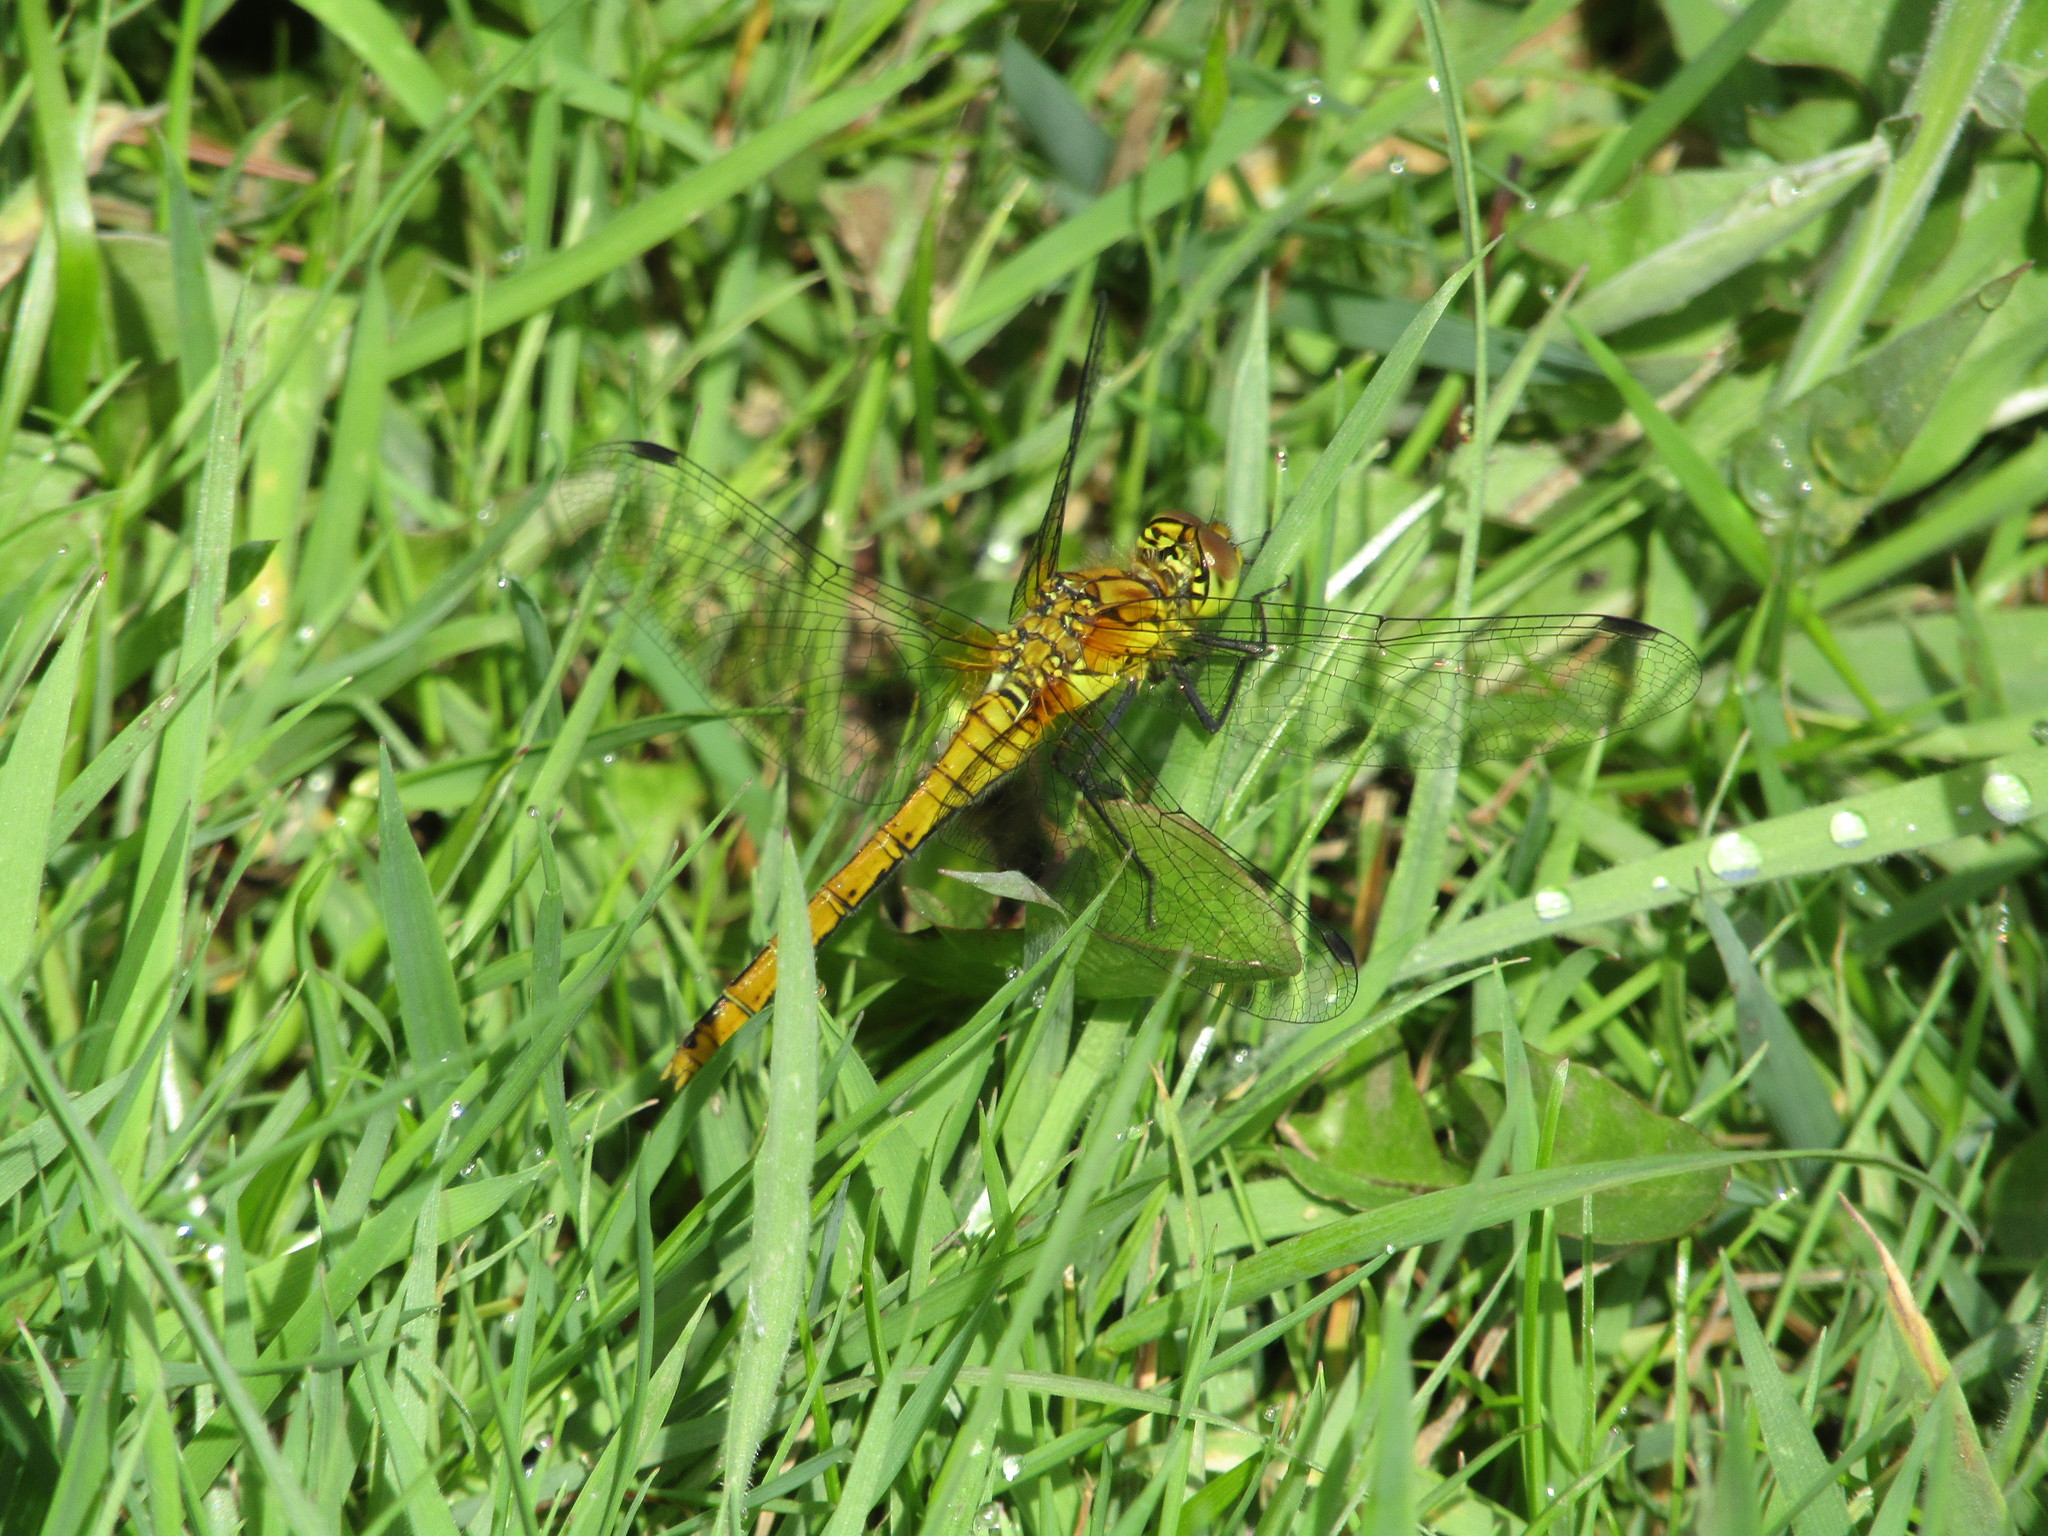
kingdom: Animalia
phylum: Arthropoda
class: Insecta
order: Odonata
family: Libellulidae
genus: Sympetrum
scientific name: Sympetrum sanguineum
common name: Ruddy darter
